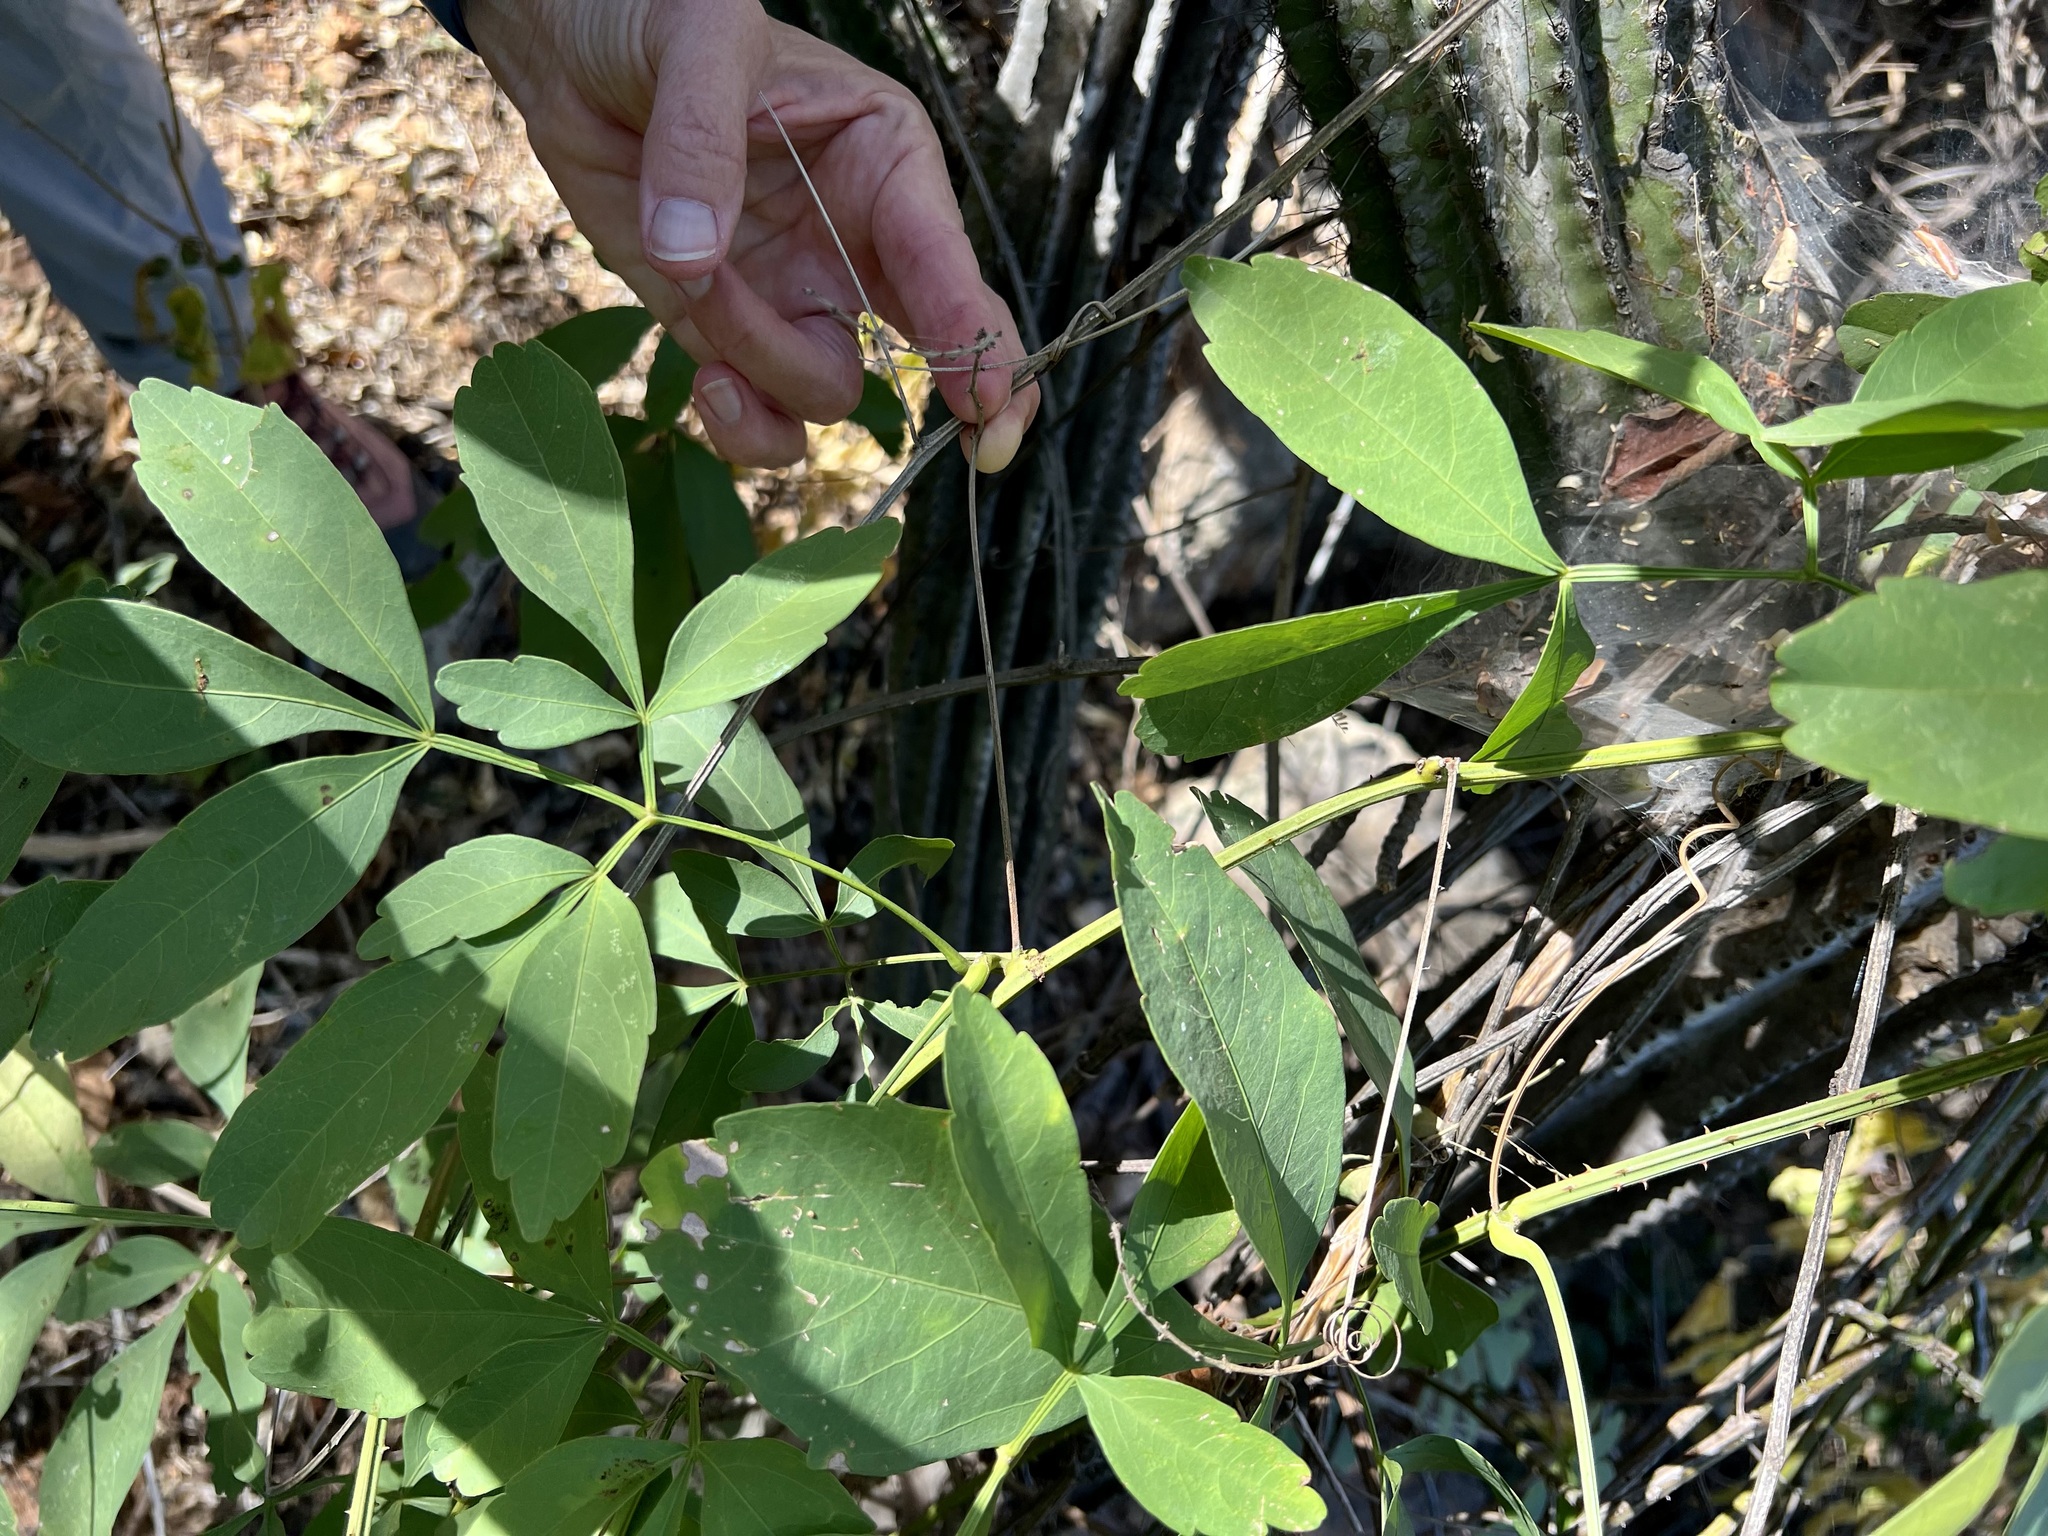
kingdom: Plantae
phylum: Tracheophyta
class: Magnoliopsida
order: Sapindales
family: Sapindaceae
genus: Serjania
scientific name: Serjania mexicana
